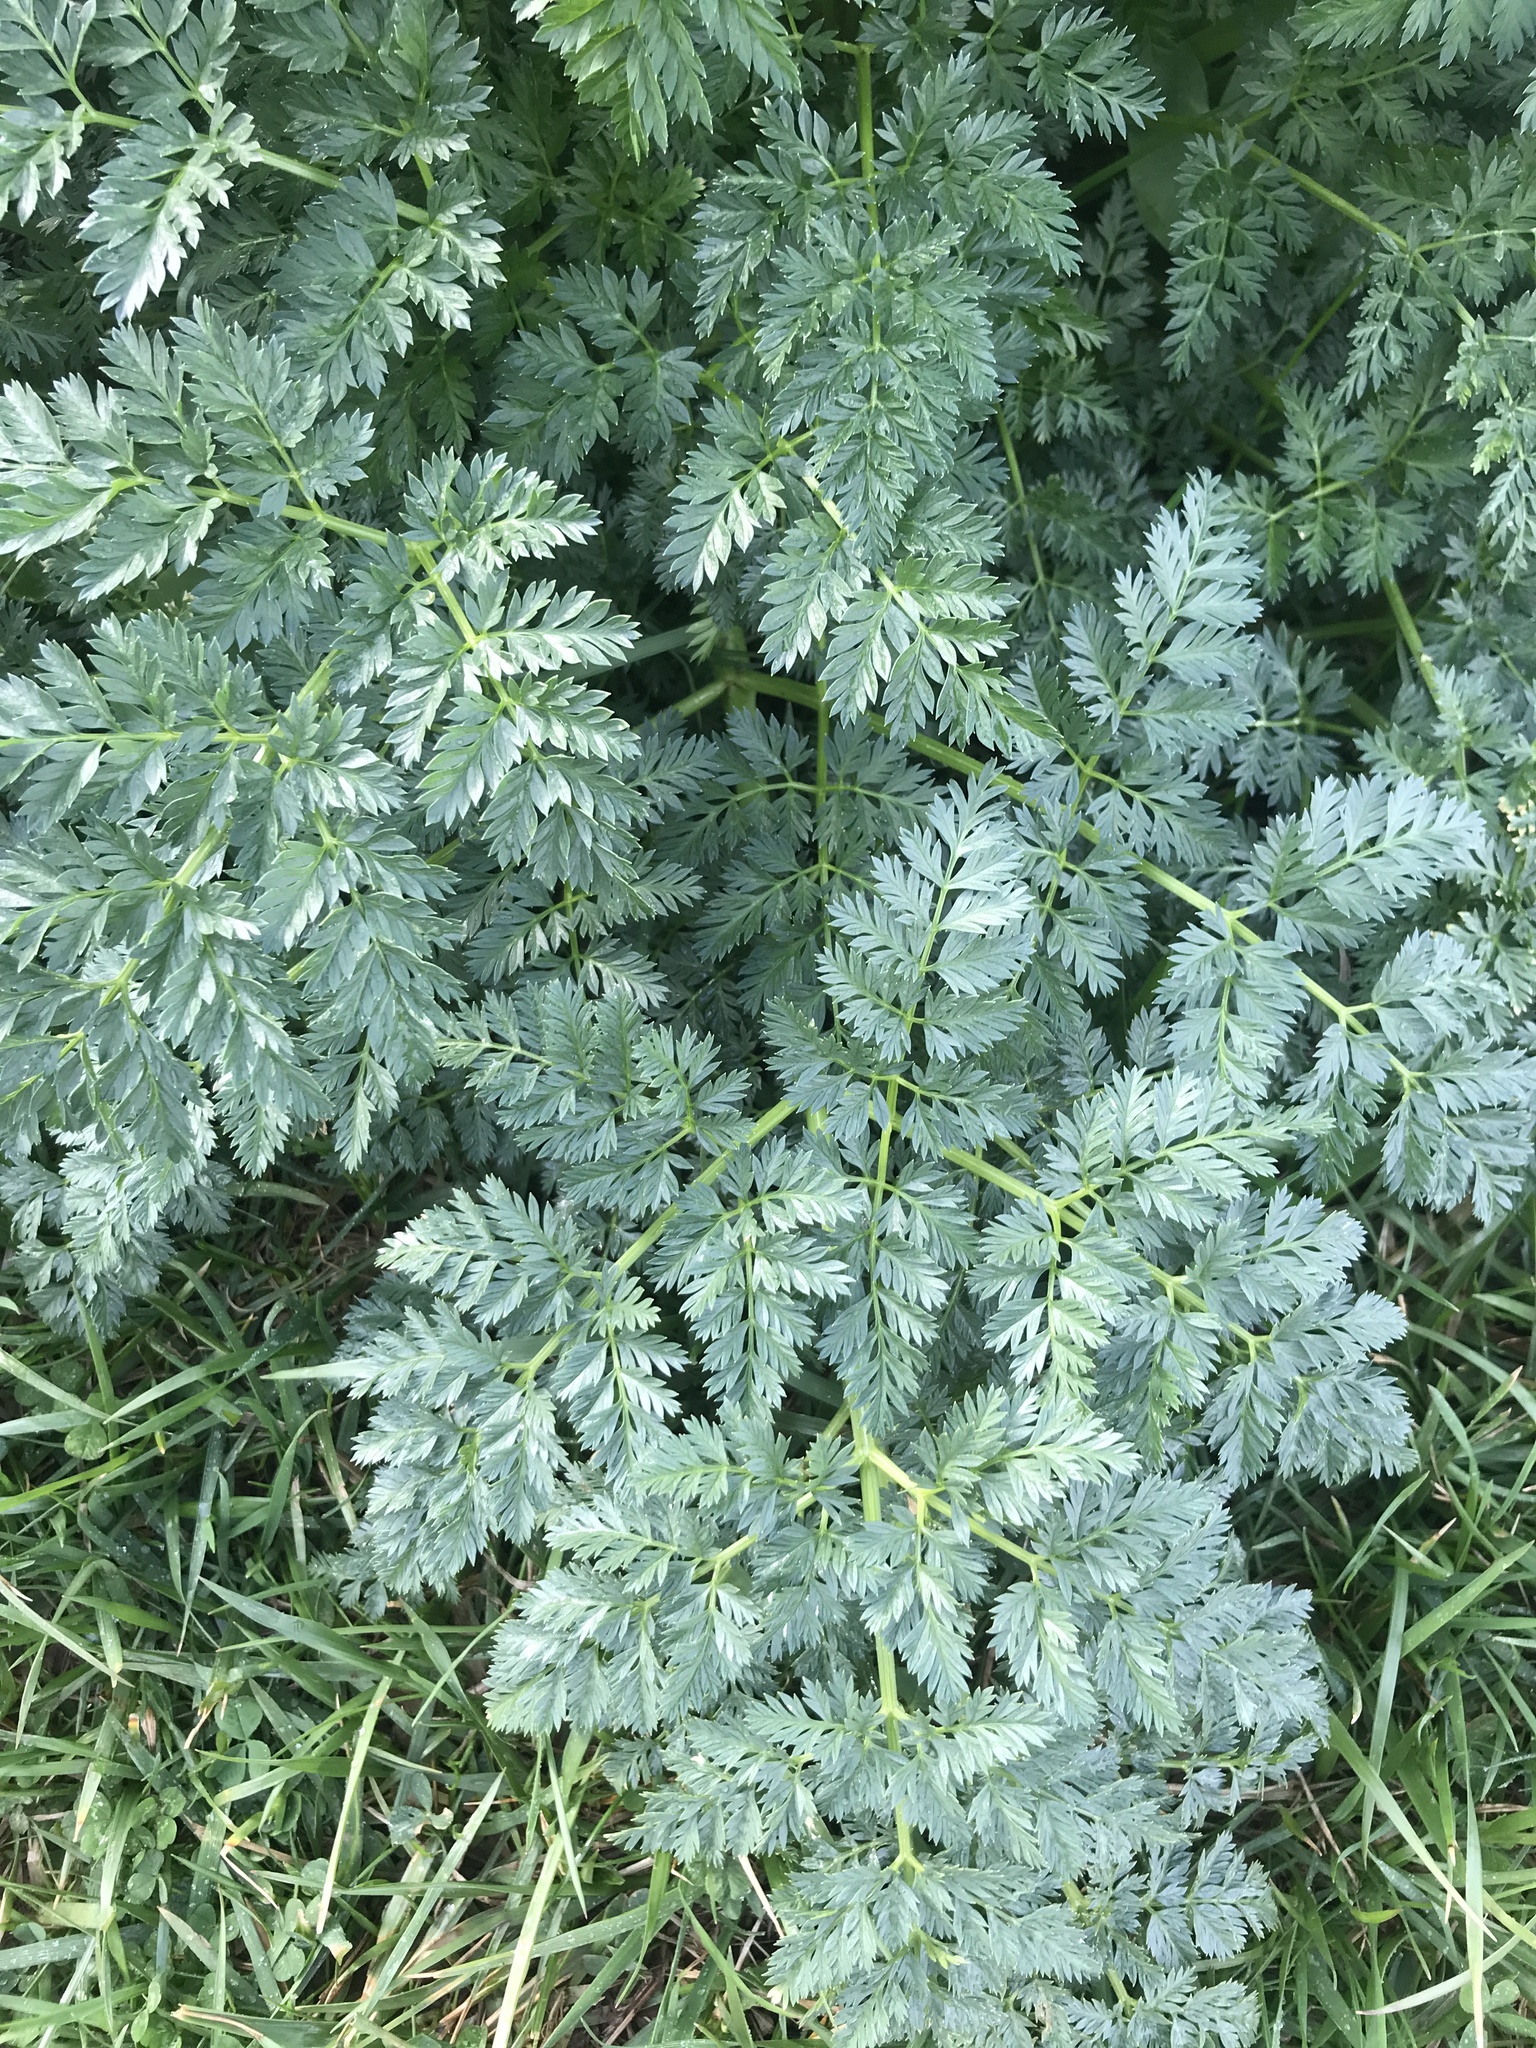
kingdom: Plantae
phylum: Tracheophyta
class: Magnoliopsida
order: Apiales
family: Apiaceae
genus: Conium
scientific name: Conium maculatum
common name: Hemlock
